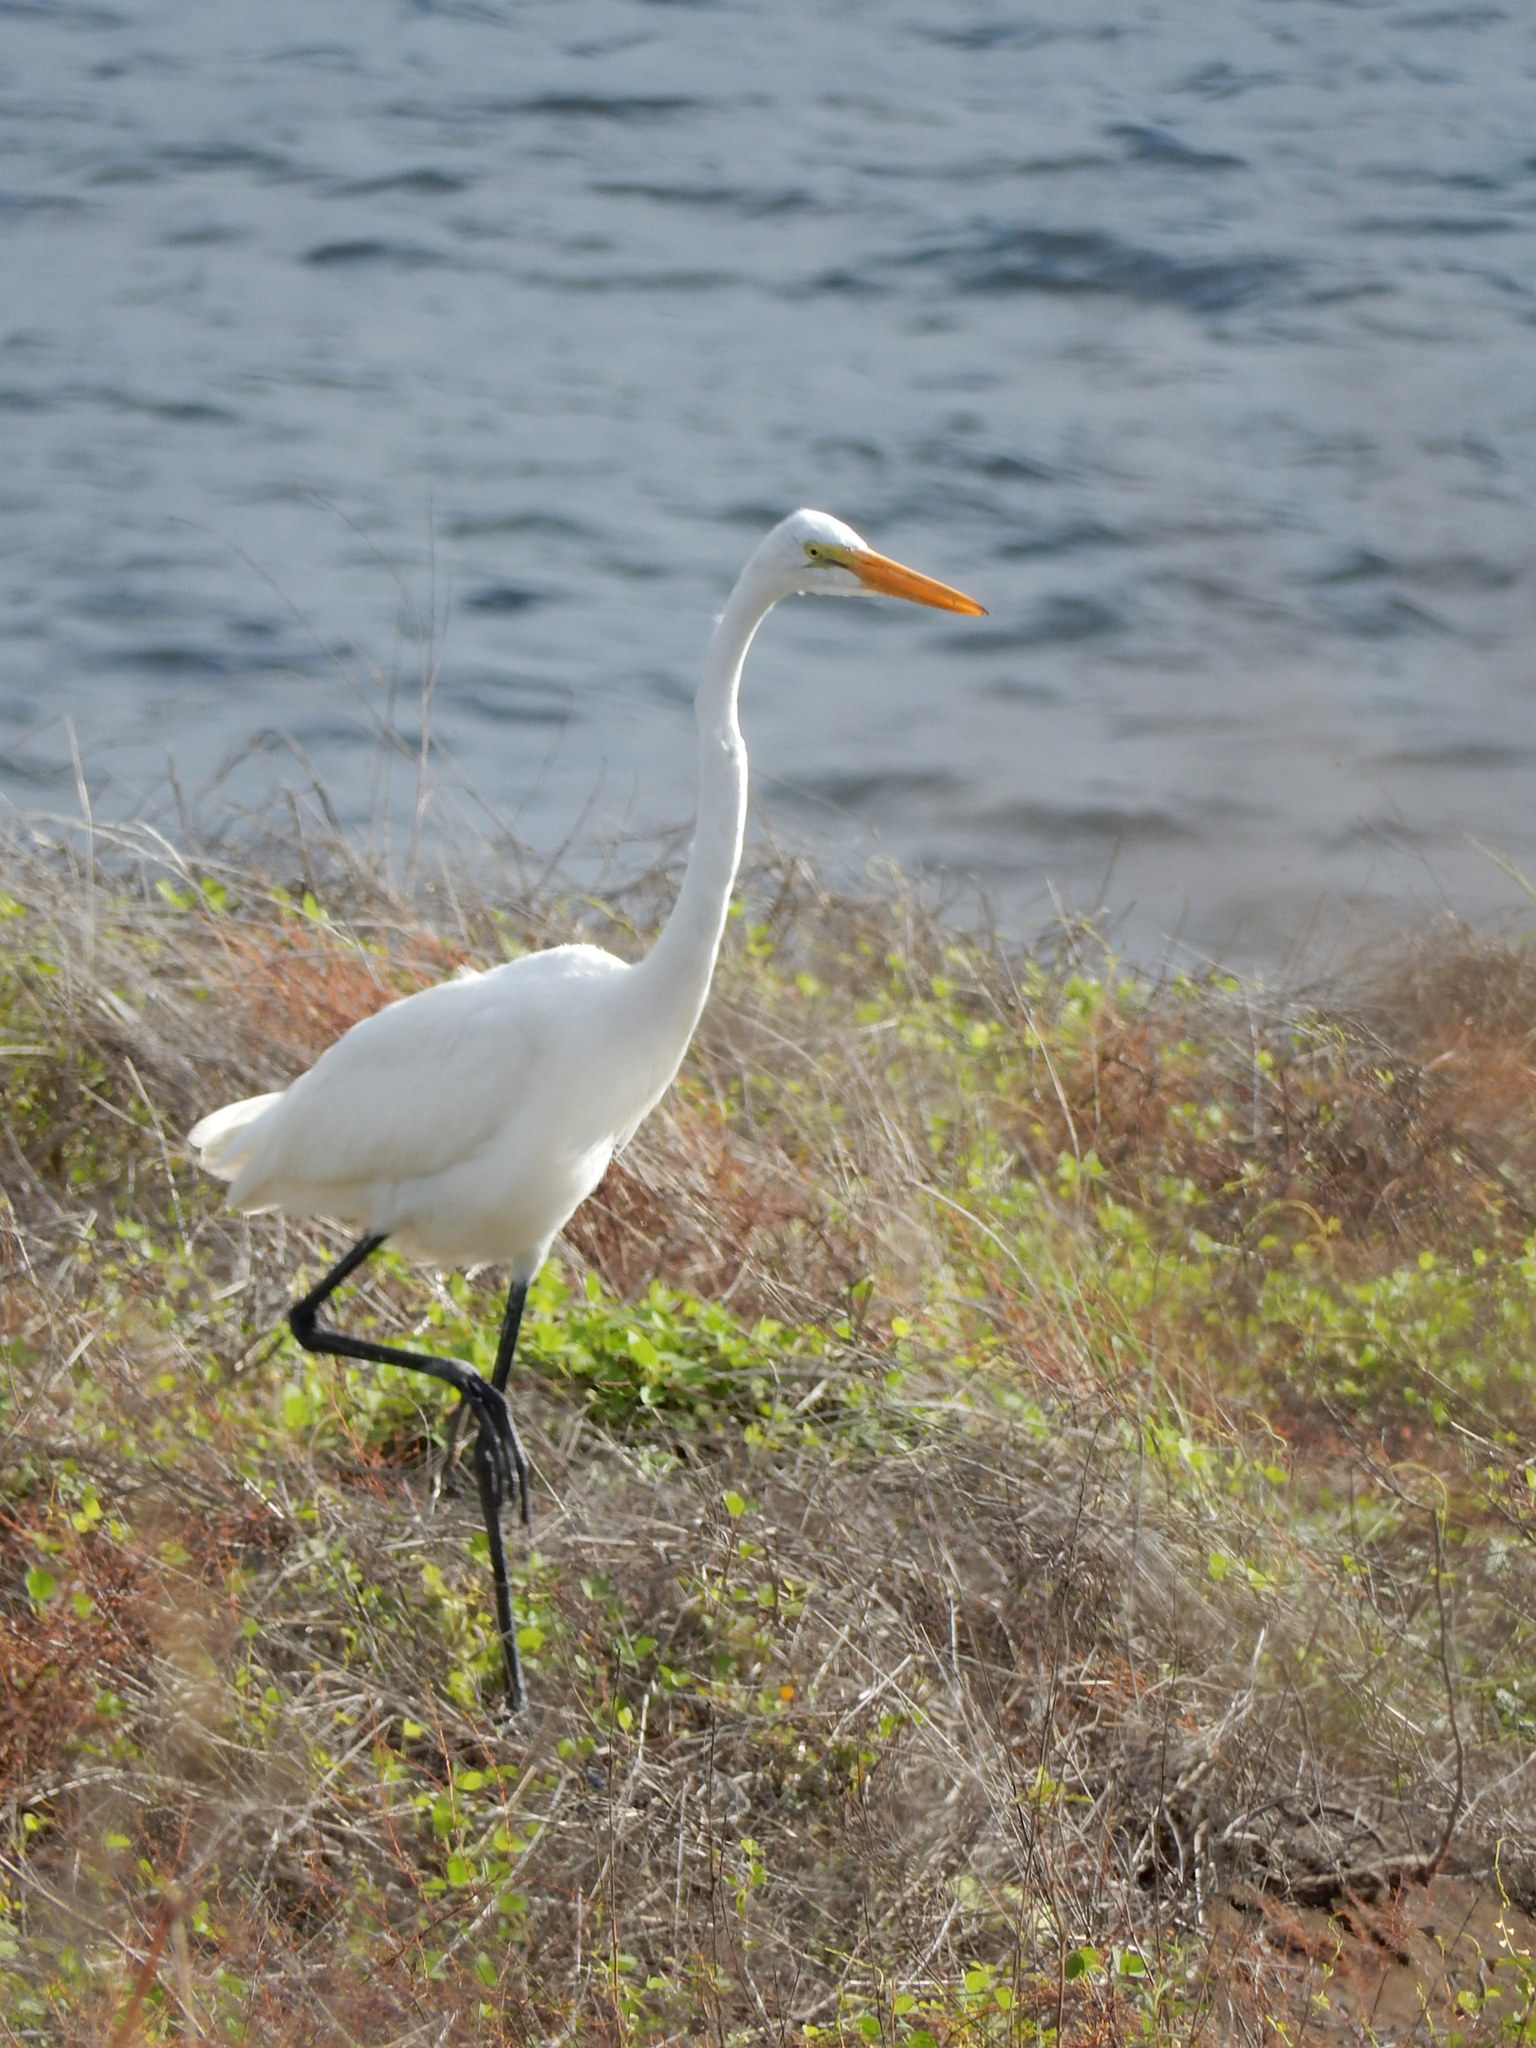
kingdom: Animalia
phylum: Chordata
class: Aves
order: Pelecaniformes
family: Ardeidae
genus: Ardea
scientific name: Ardea alba
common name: Great egret
